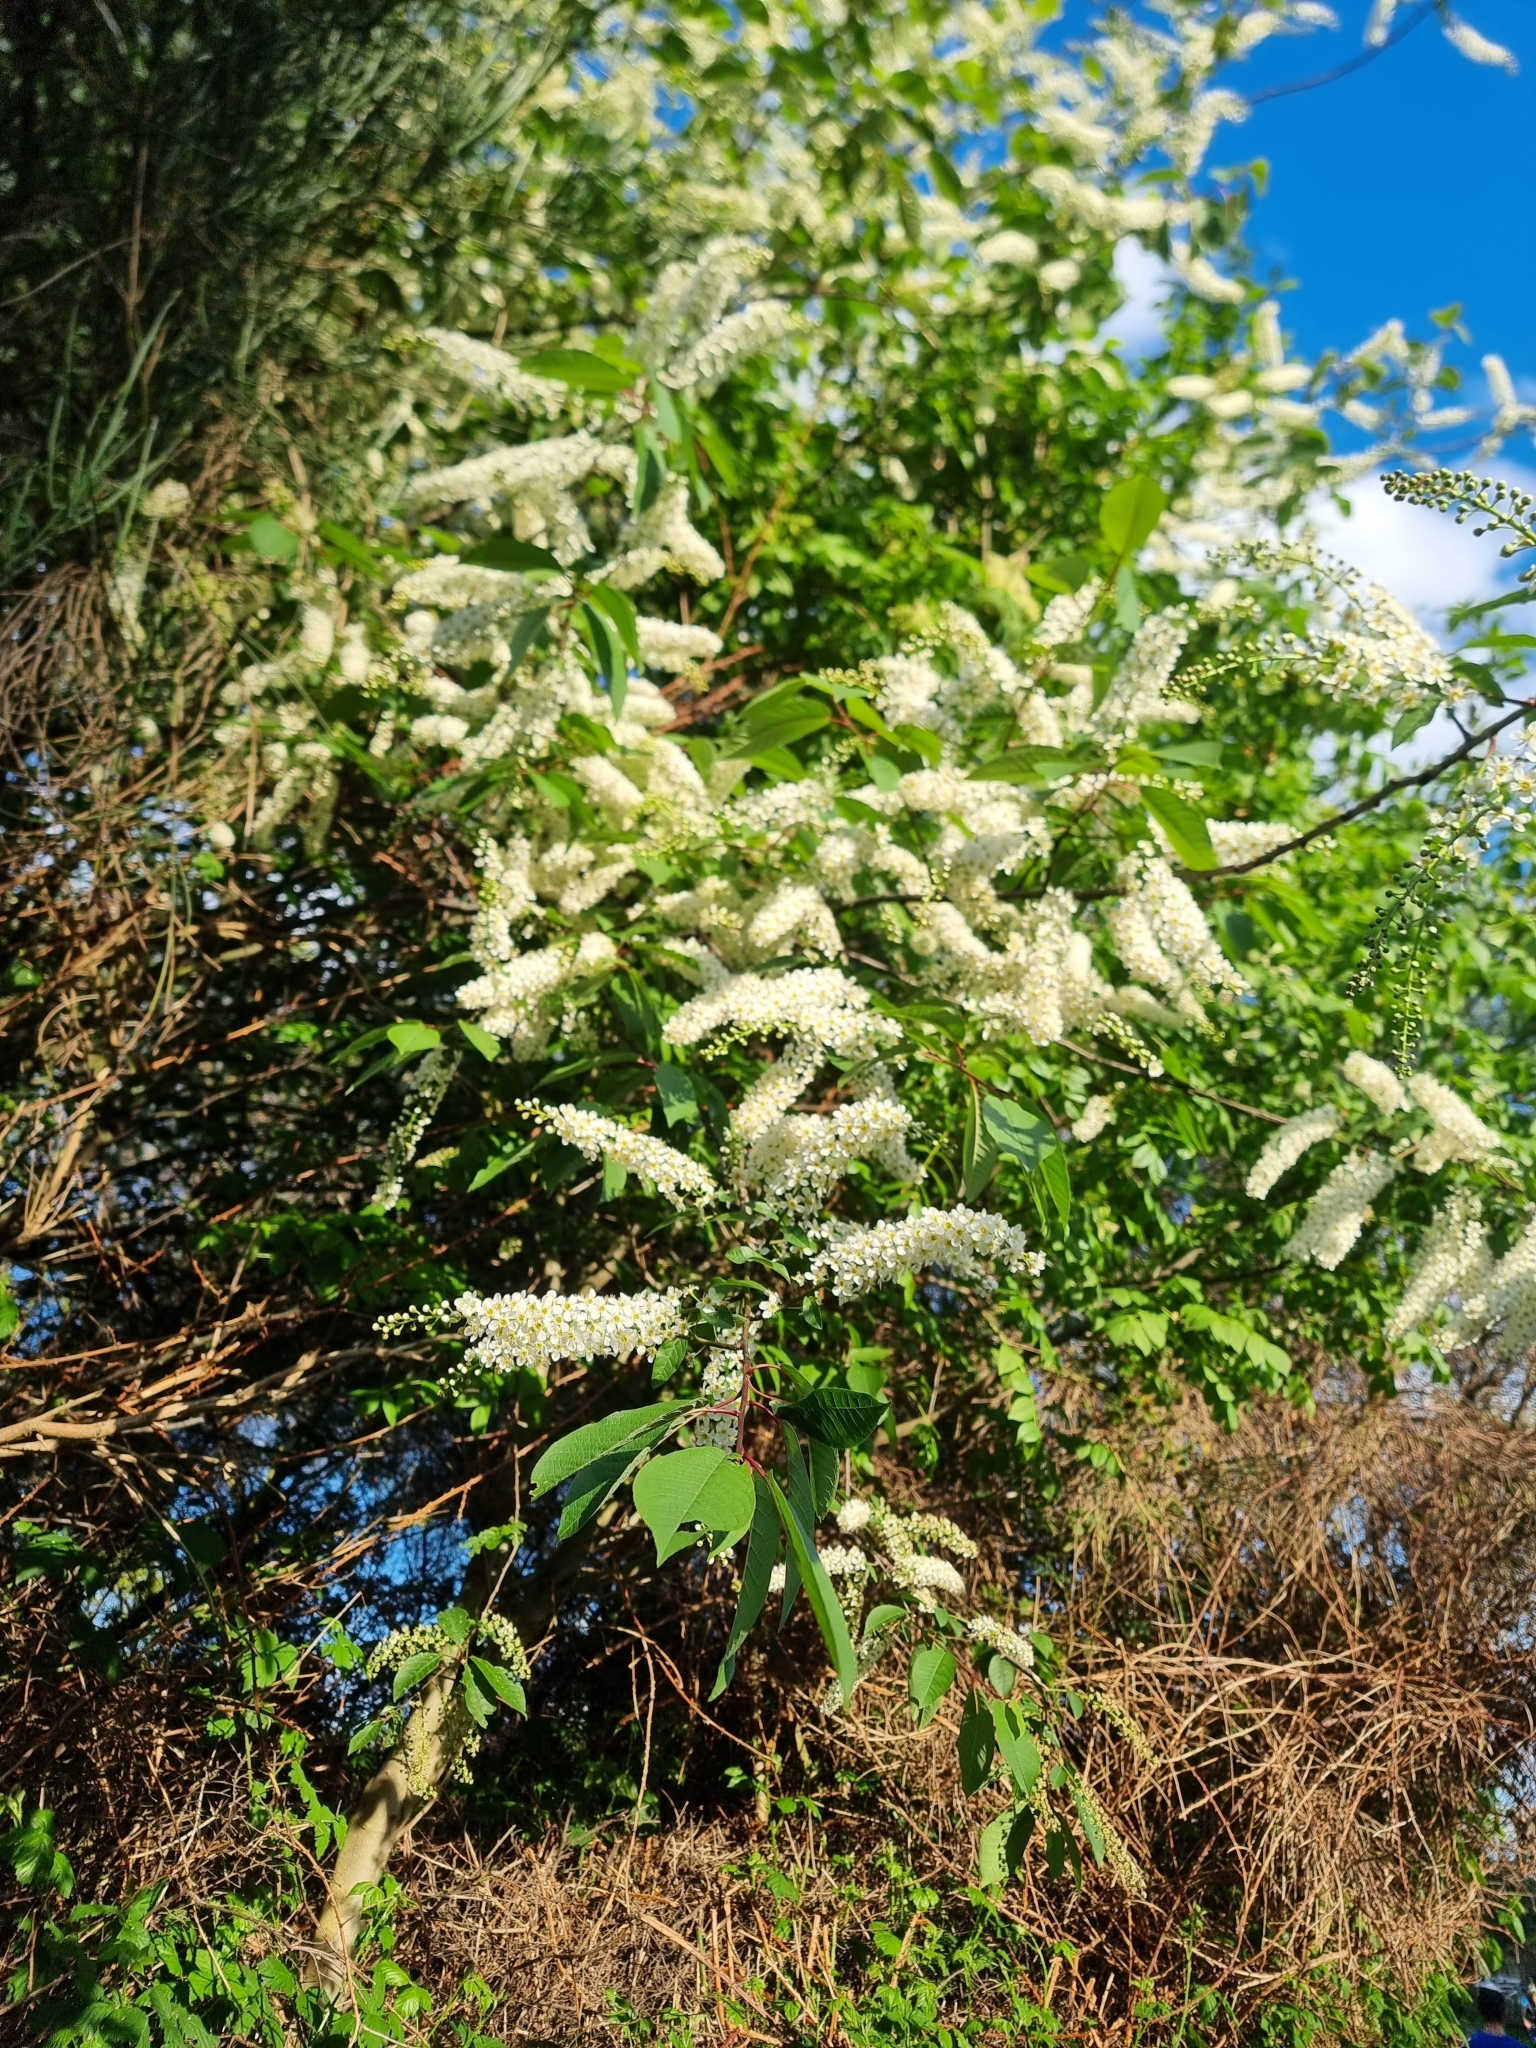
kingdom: Plantae
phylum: Tracheophyta
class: Magnoliopsida
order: Rosales
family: Rosaceae
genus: Prunus
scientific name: Prunus padus
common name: Bird cherry
